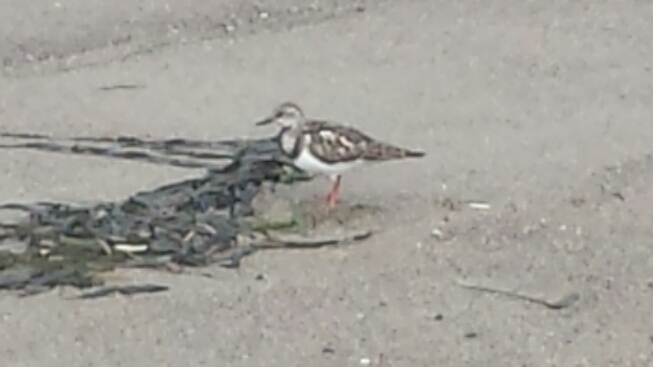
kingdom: Animalia
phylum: Chordata
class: Aves
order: Charadriiformes
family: Scolopacidae
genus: Arenaria
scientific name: Arenaria interpres
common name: Ruddy turnstone
